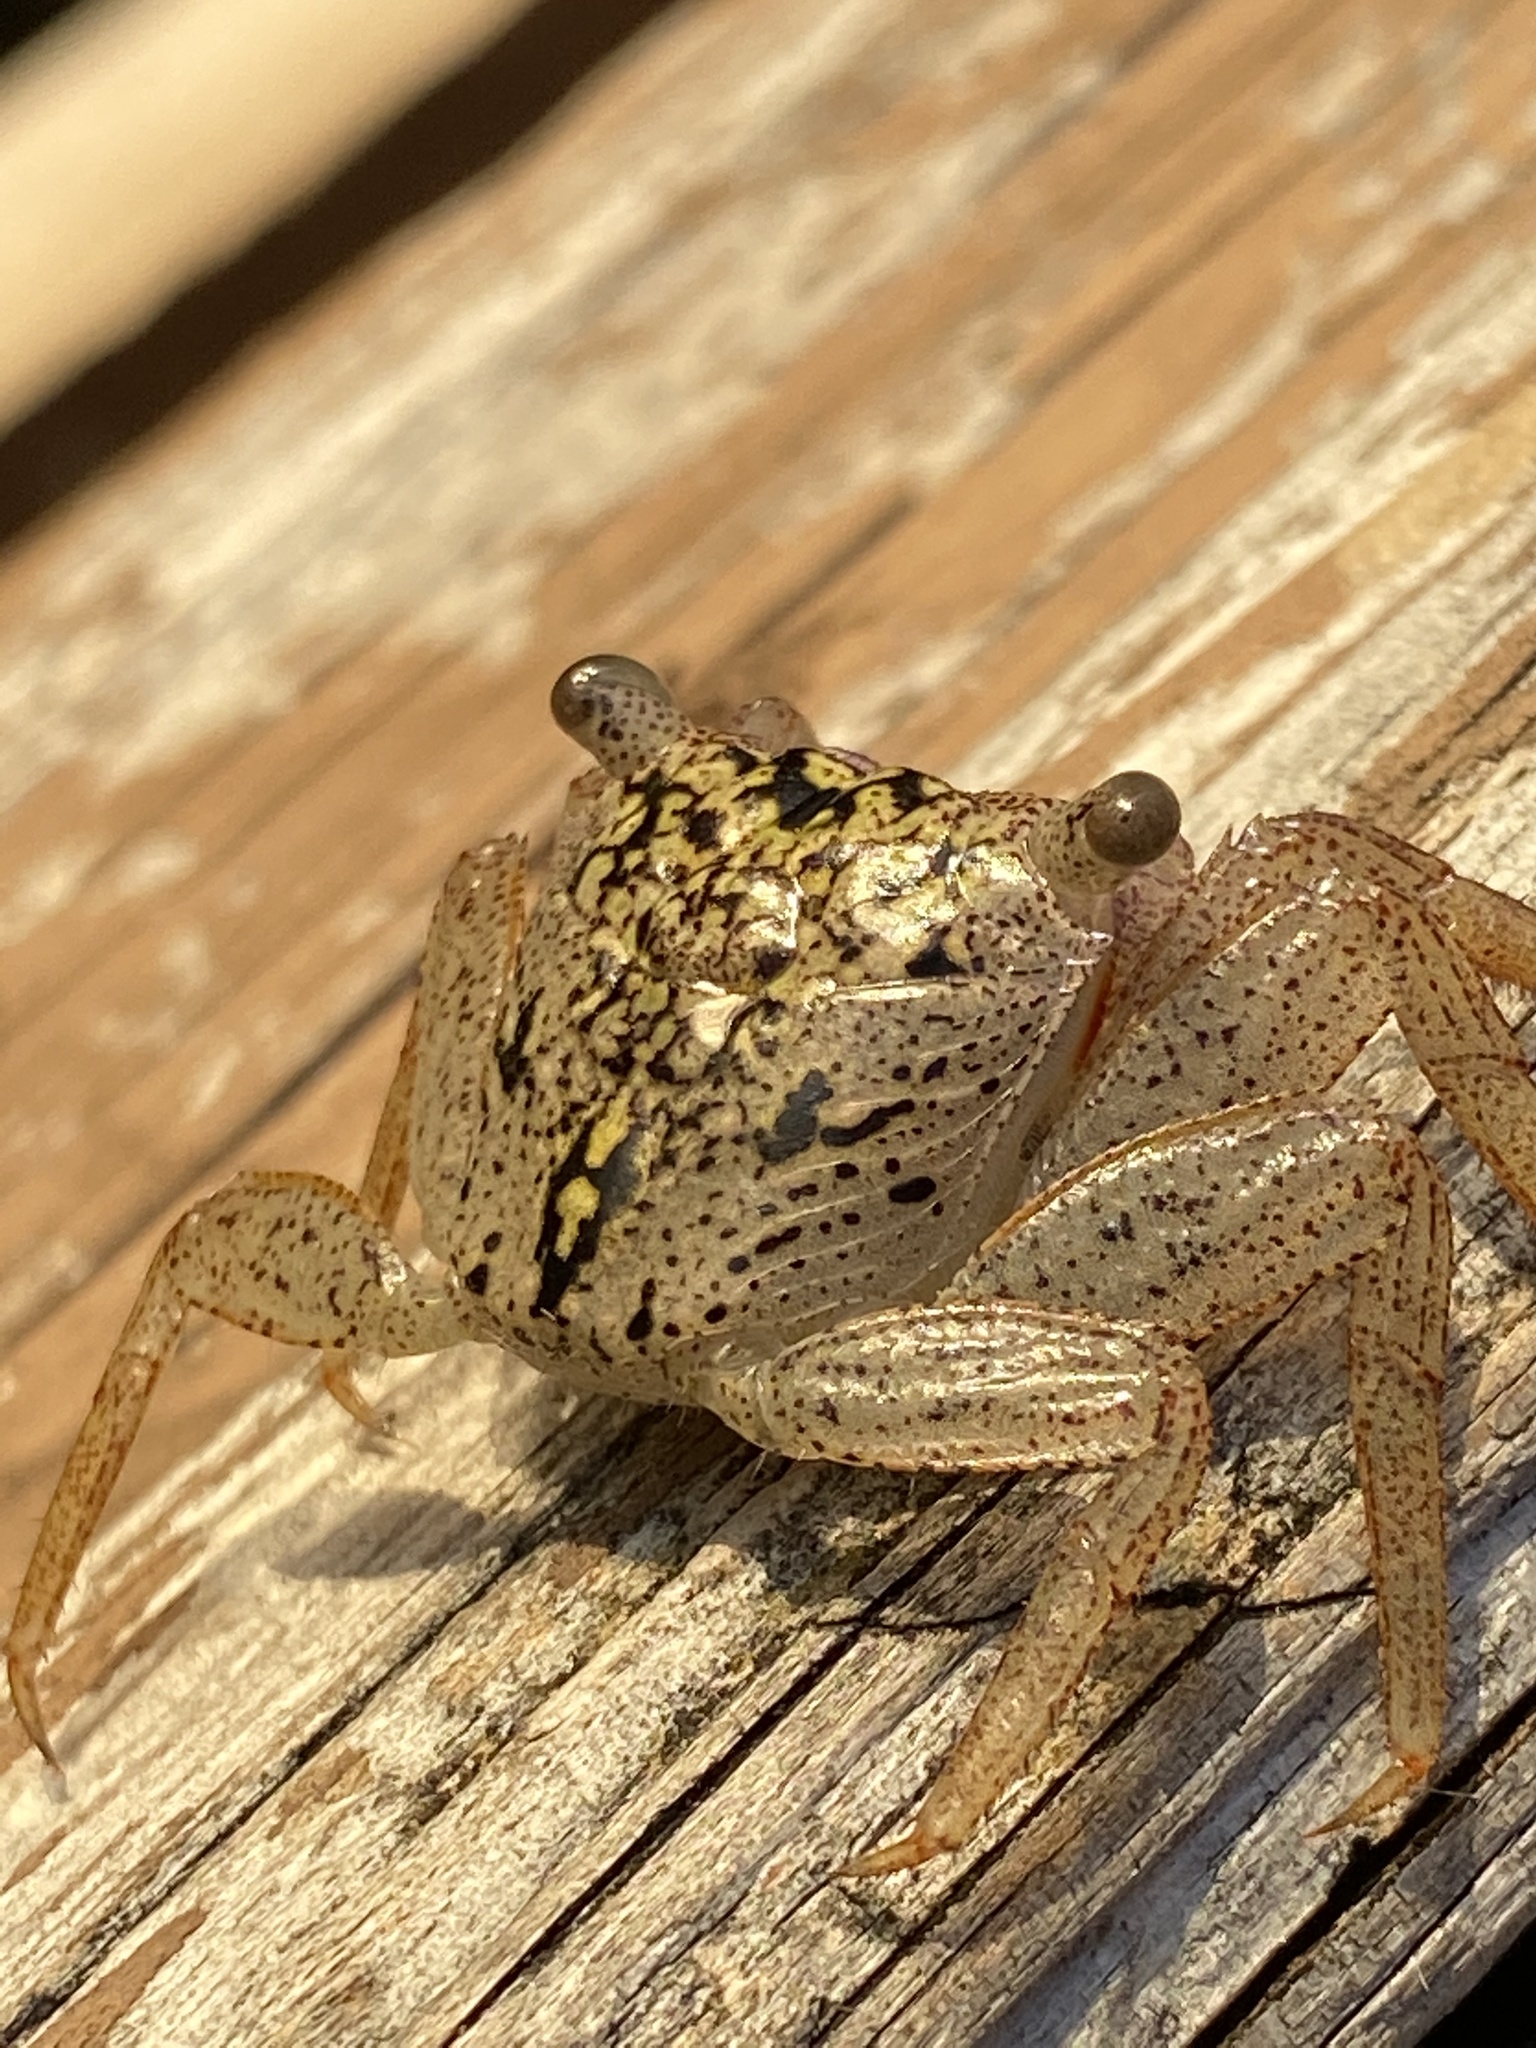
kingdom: Animalia
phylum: Arthropoda
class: Malacostraca
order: Decapoda
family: Sesarmidae
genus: Aratus
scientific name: Aratus pisonii
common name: Mangrove crab
